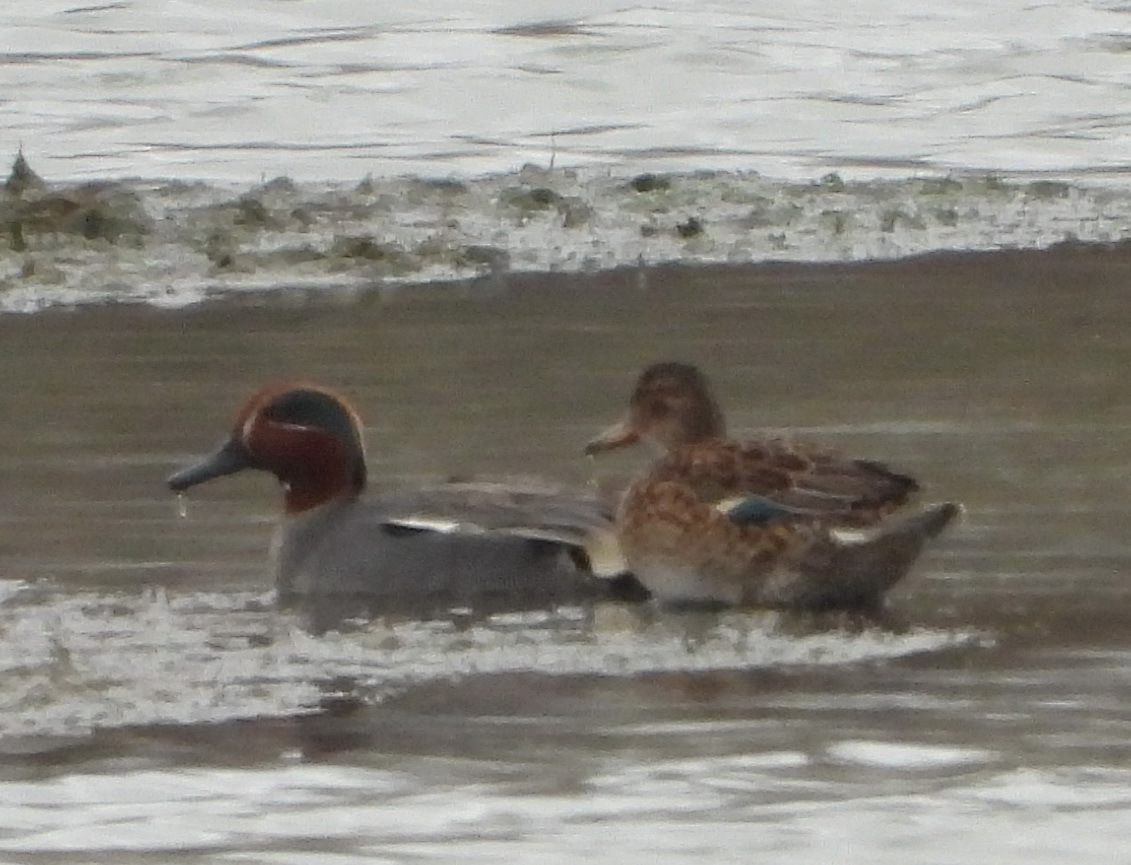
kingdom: Animalia
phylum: Chordata
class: Aves
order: Anseriformes
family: Anatidae
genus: Anas
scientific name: Anas crecca
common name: Eurasian teal
